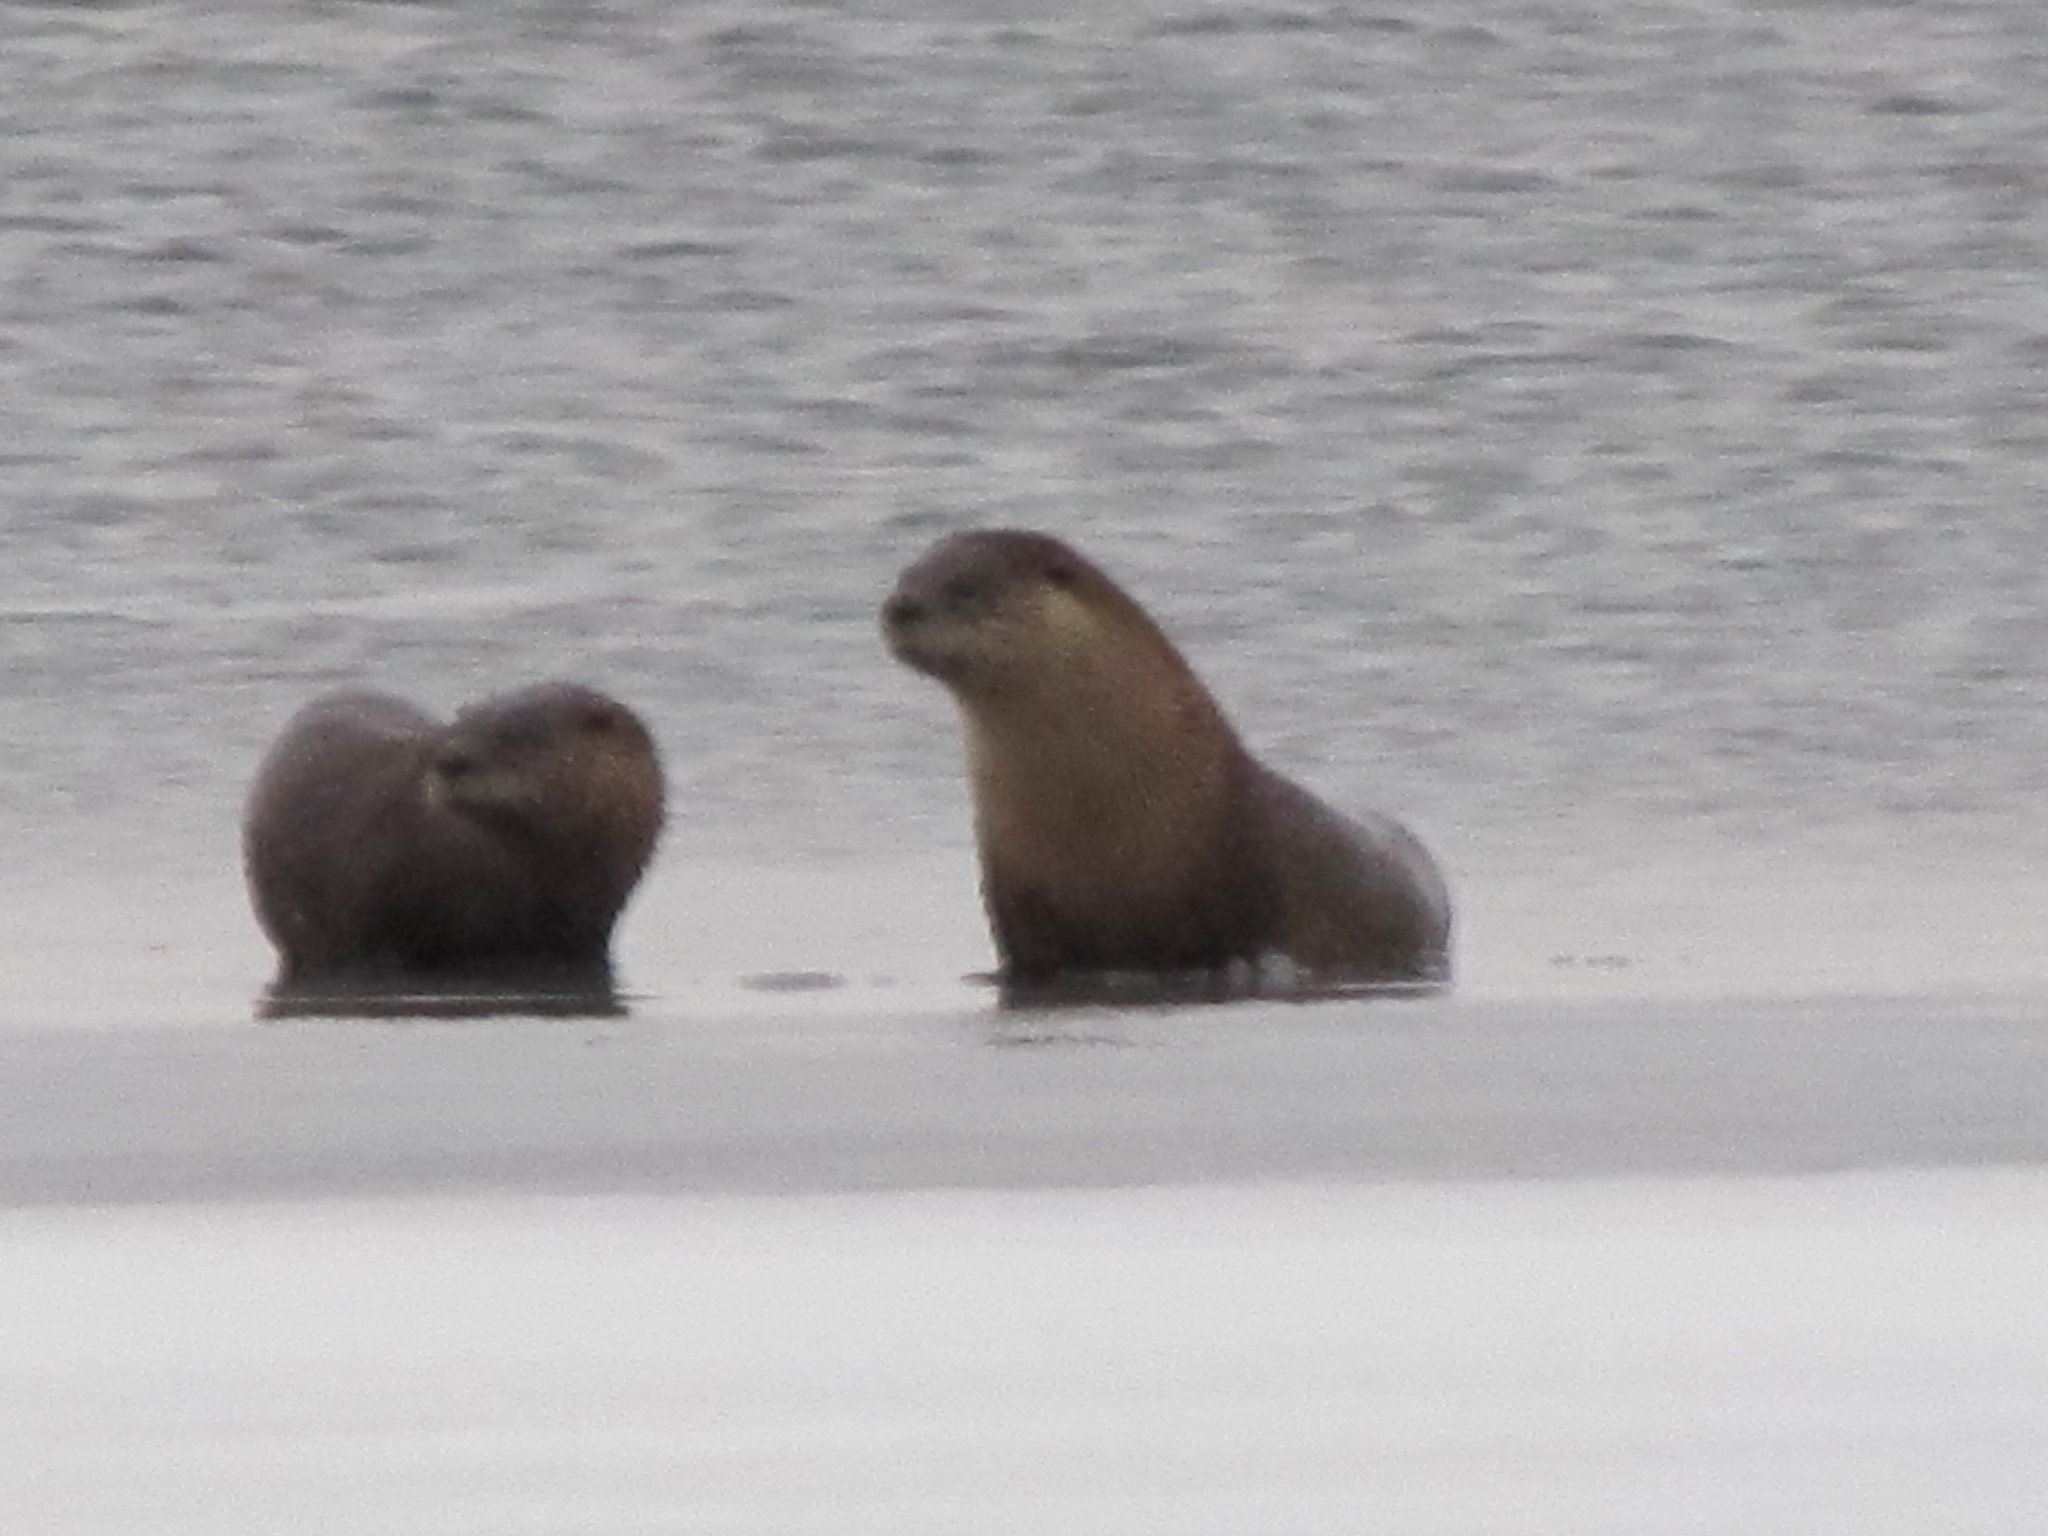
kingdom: Animalia
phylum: Chordata
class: Mammalia
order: Carnivora
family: Mustelidae
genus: Lontra
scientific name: Lontra canadensis
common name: North american river otter
